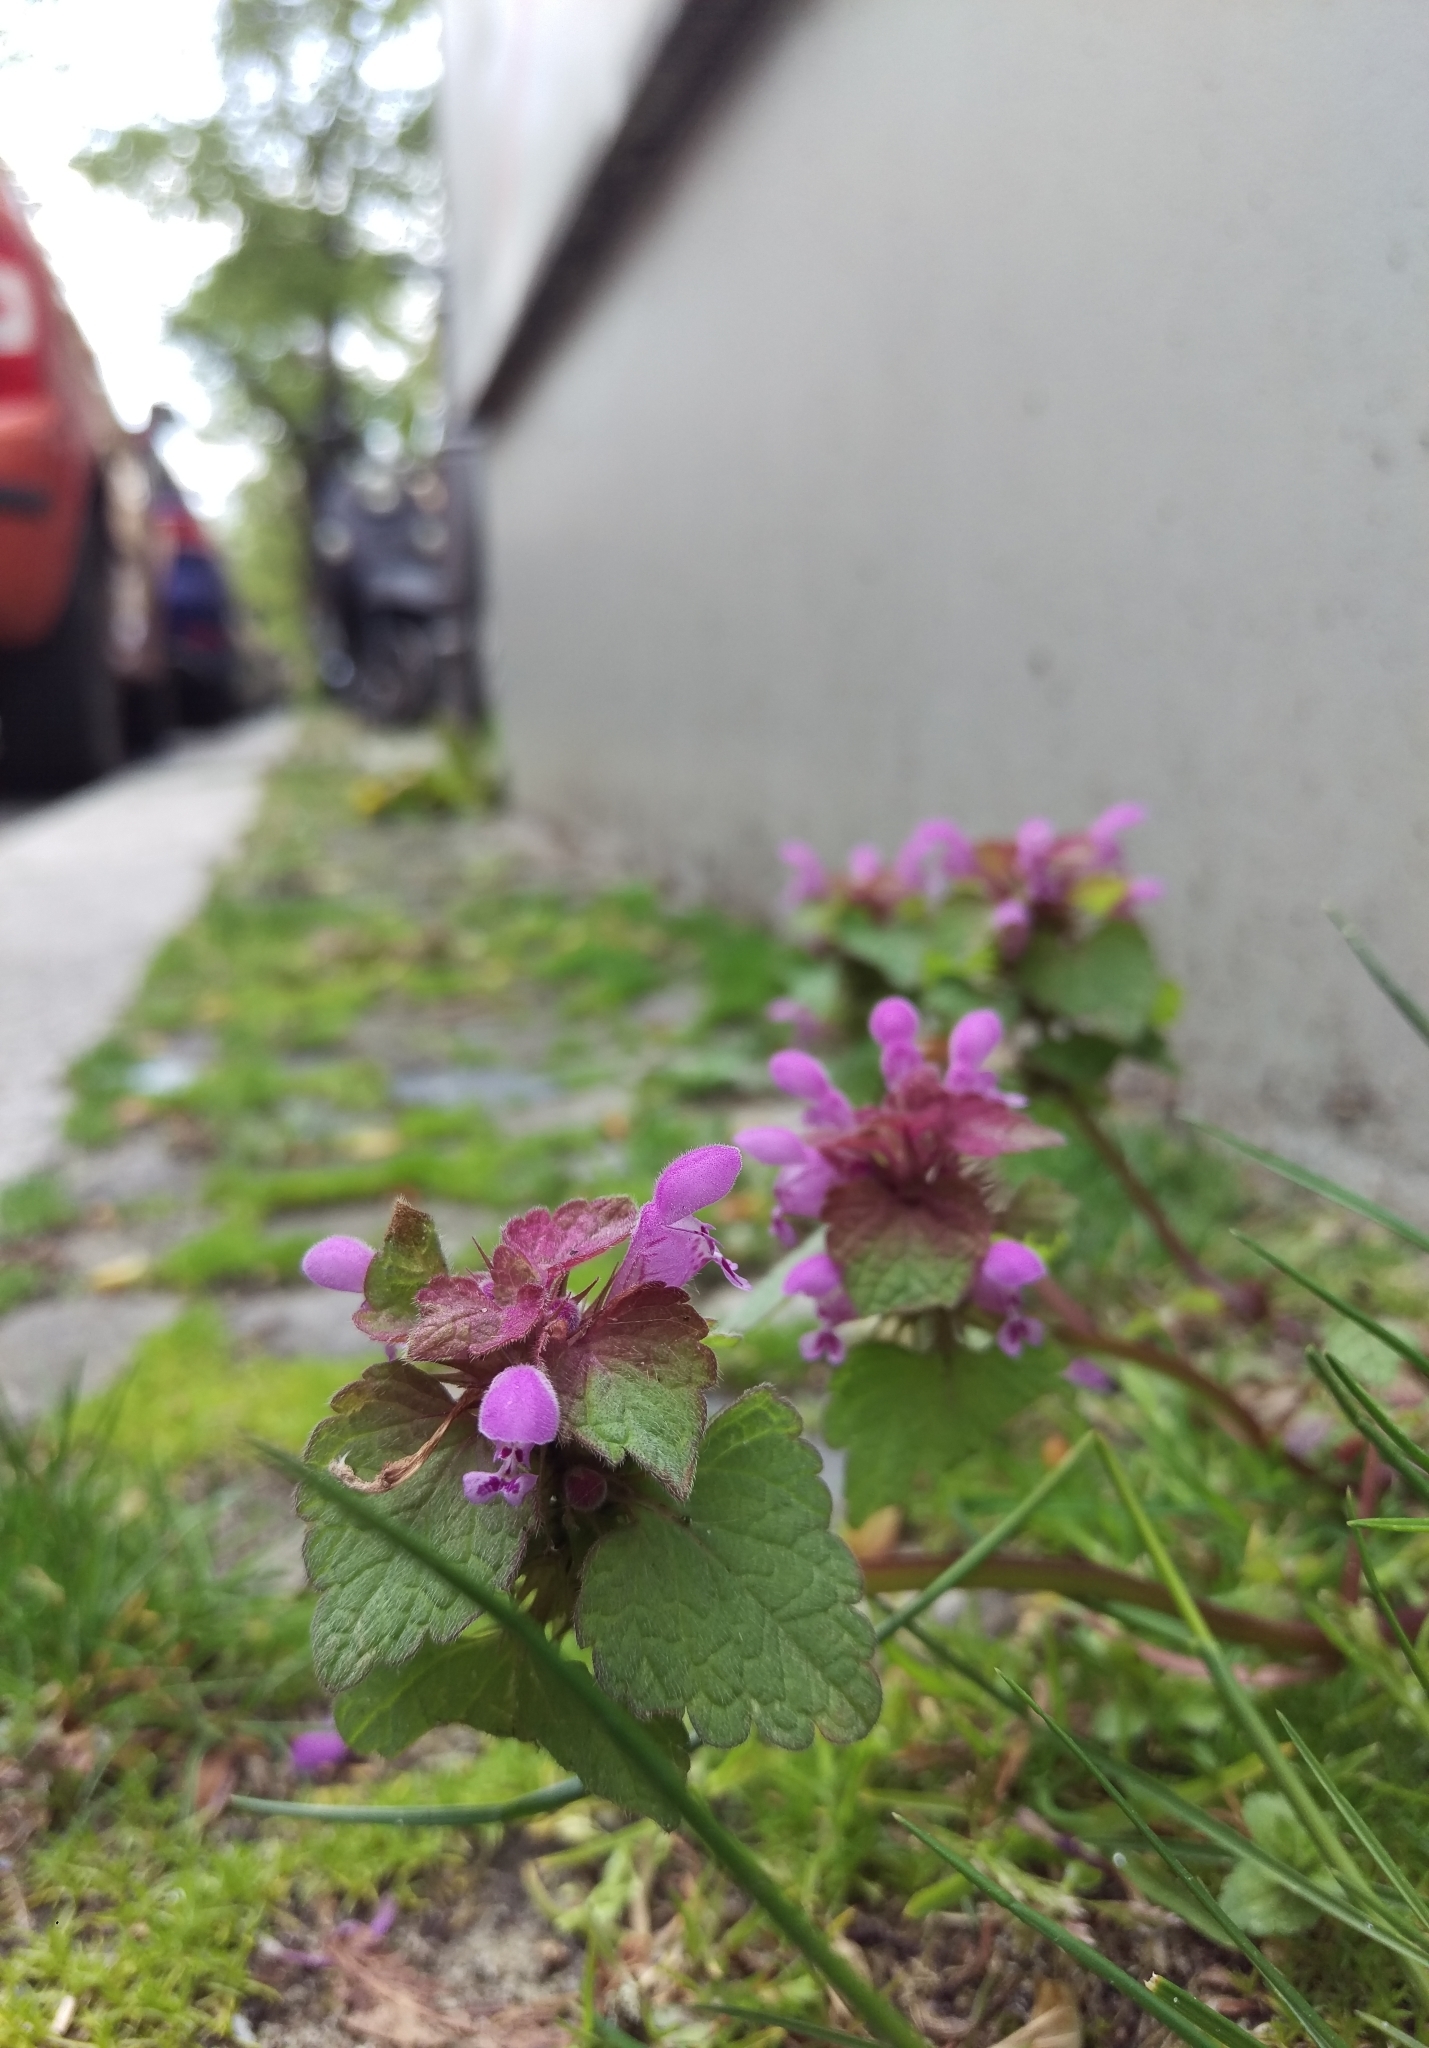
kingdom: Plantae
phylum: Tracheophyta
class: Magnoliopsida
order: Lamiales
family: Lamiaceae
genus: Lamium
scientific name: Lamium purpureum
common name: Red dead-nettle
